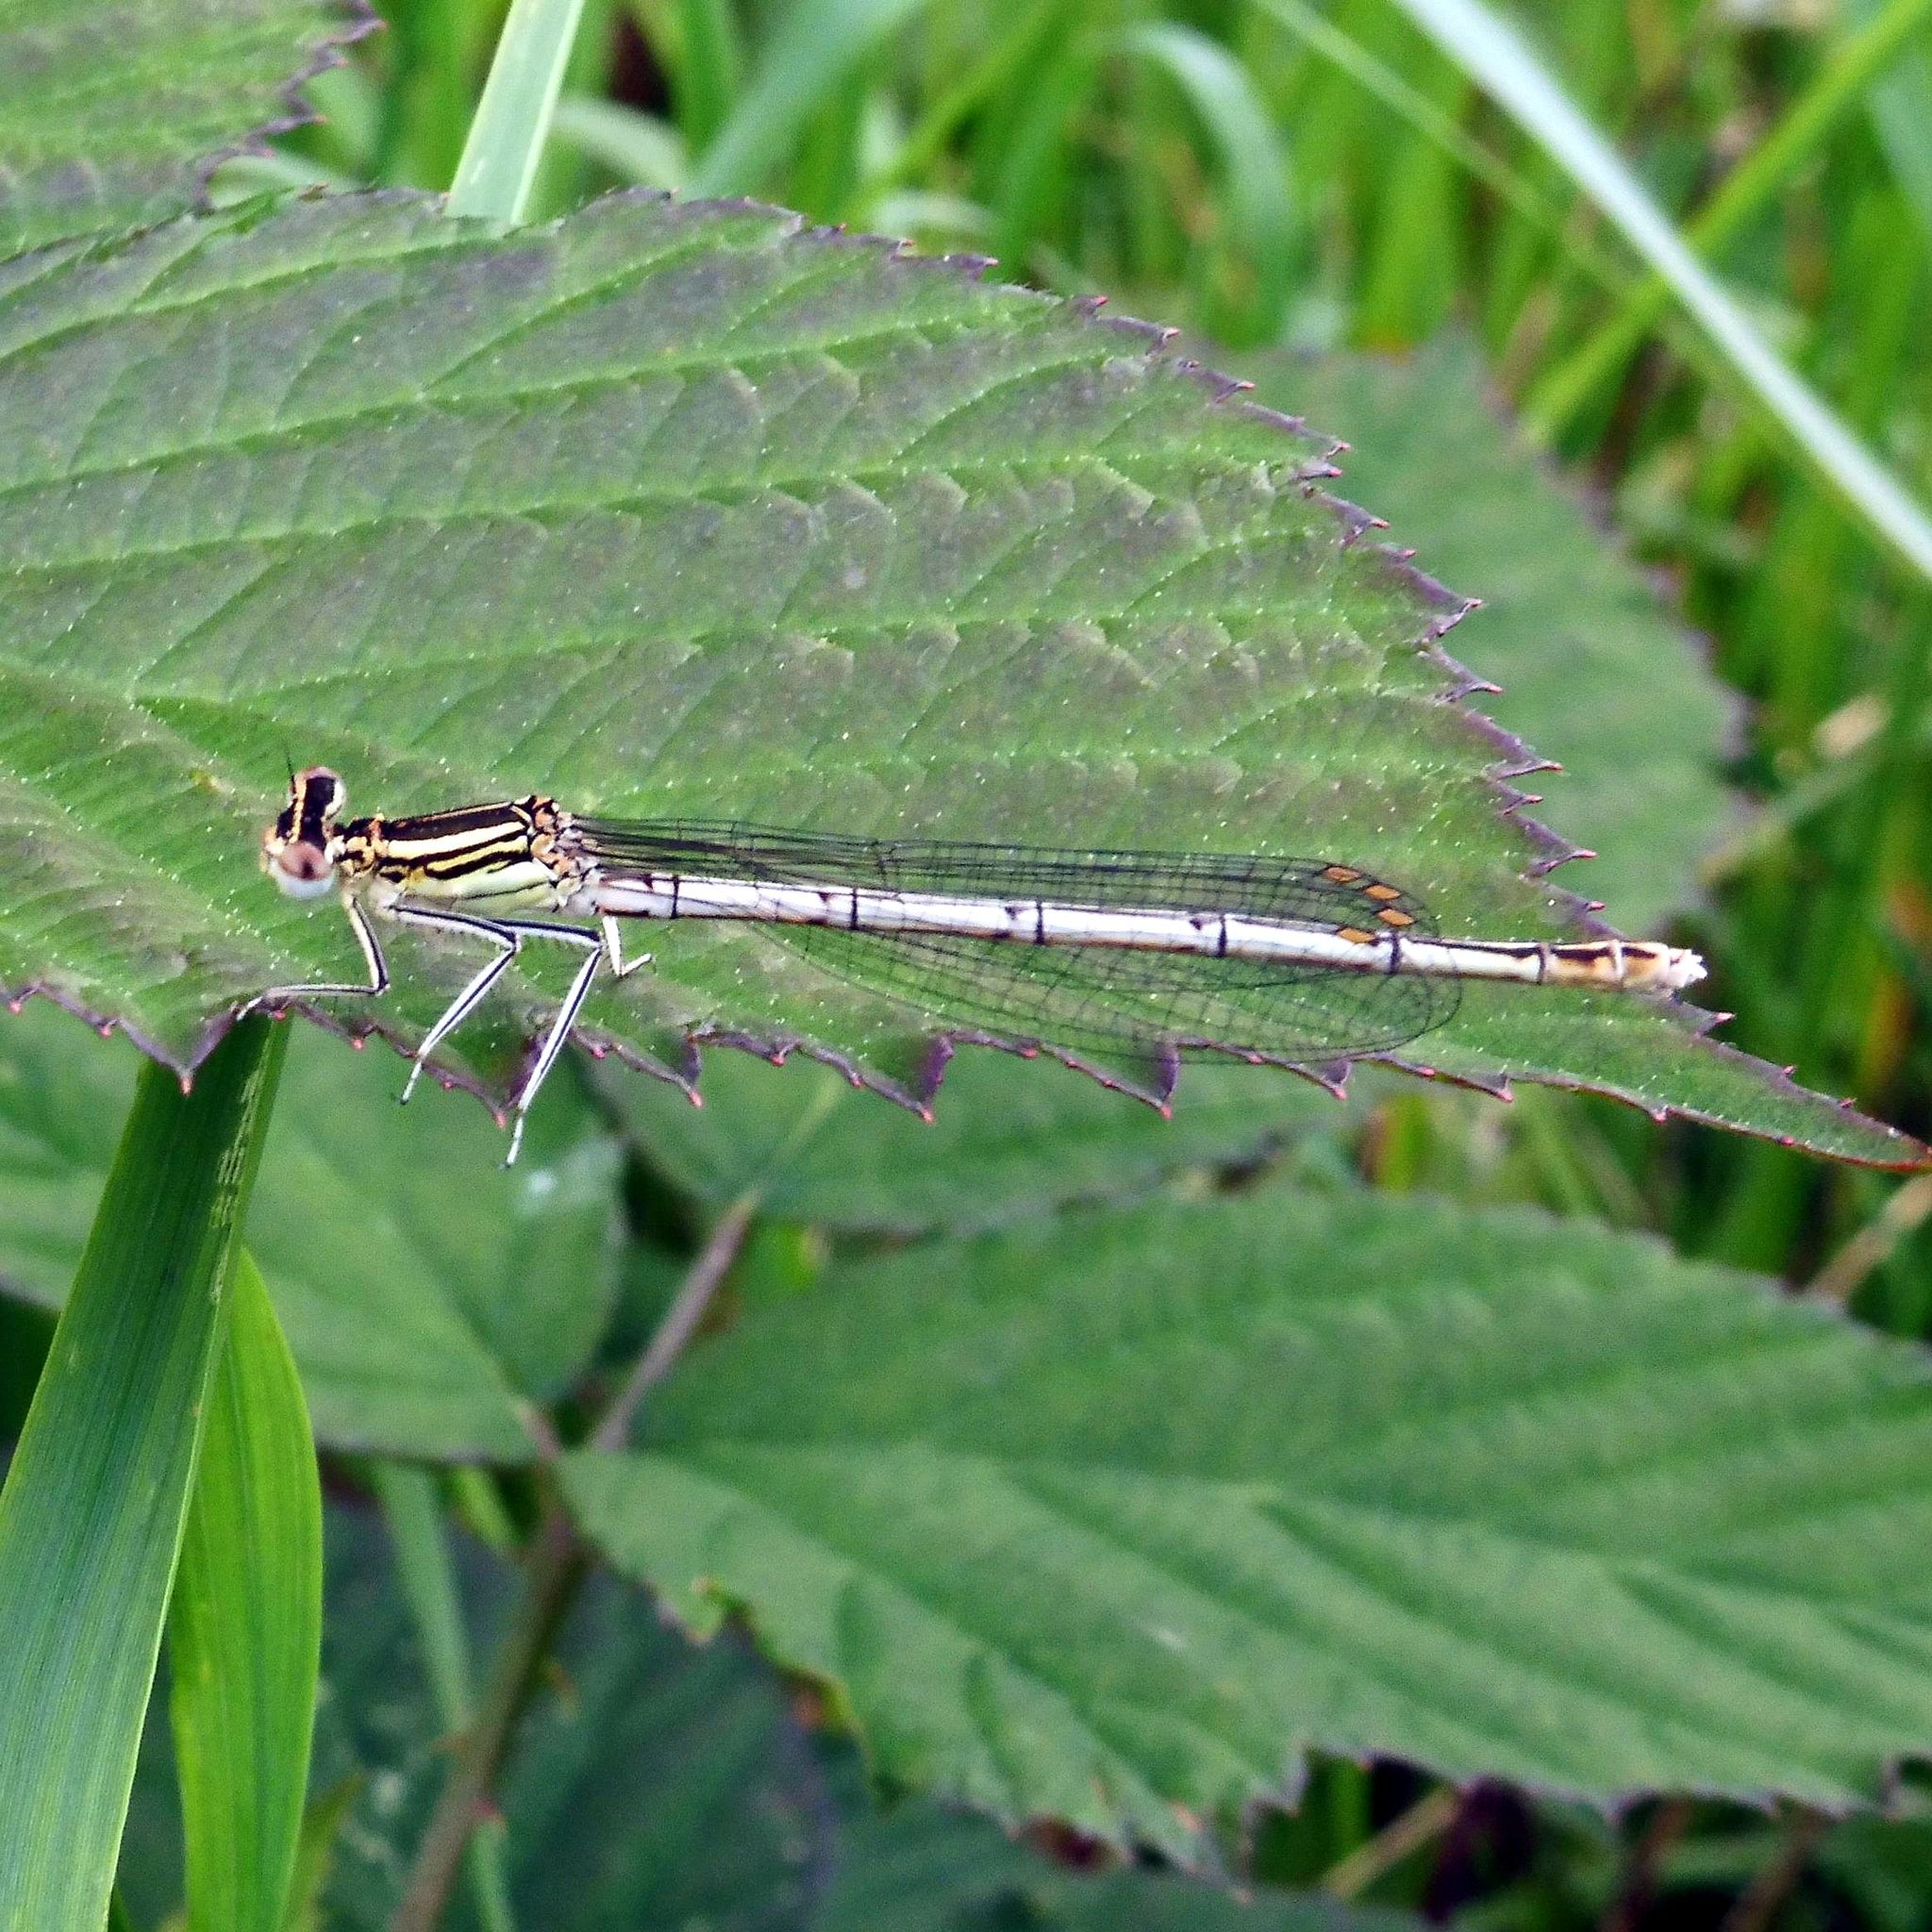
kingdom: Animalia
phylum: Arthropoda
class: Insecta
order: Odonata
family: Platycnemididae
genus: Platycnemis
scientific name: Platycnemis pennipes
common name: White-legged damselfly
